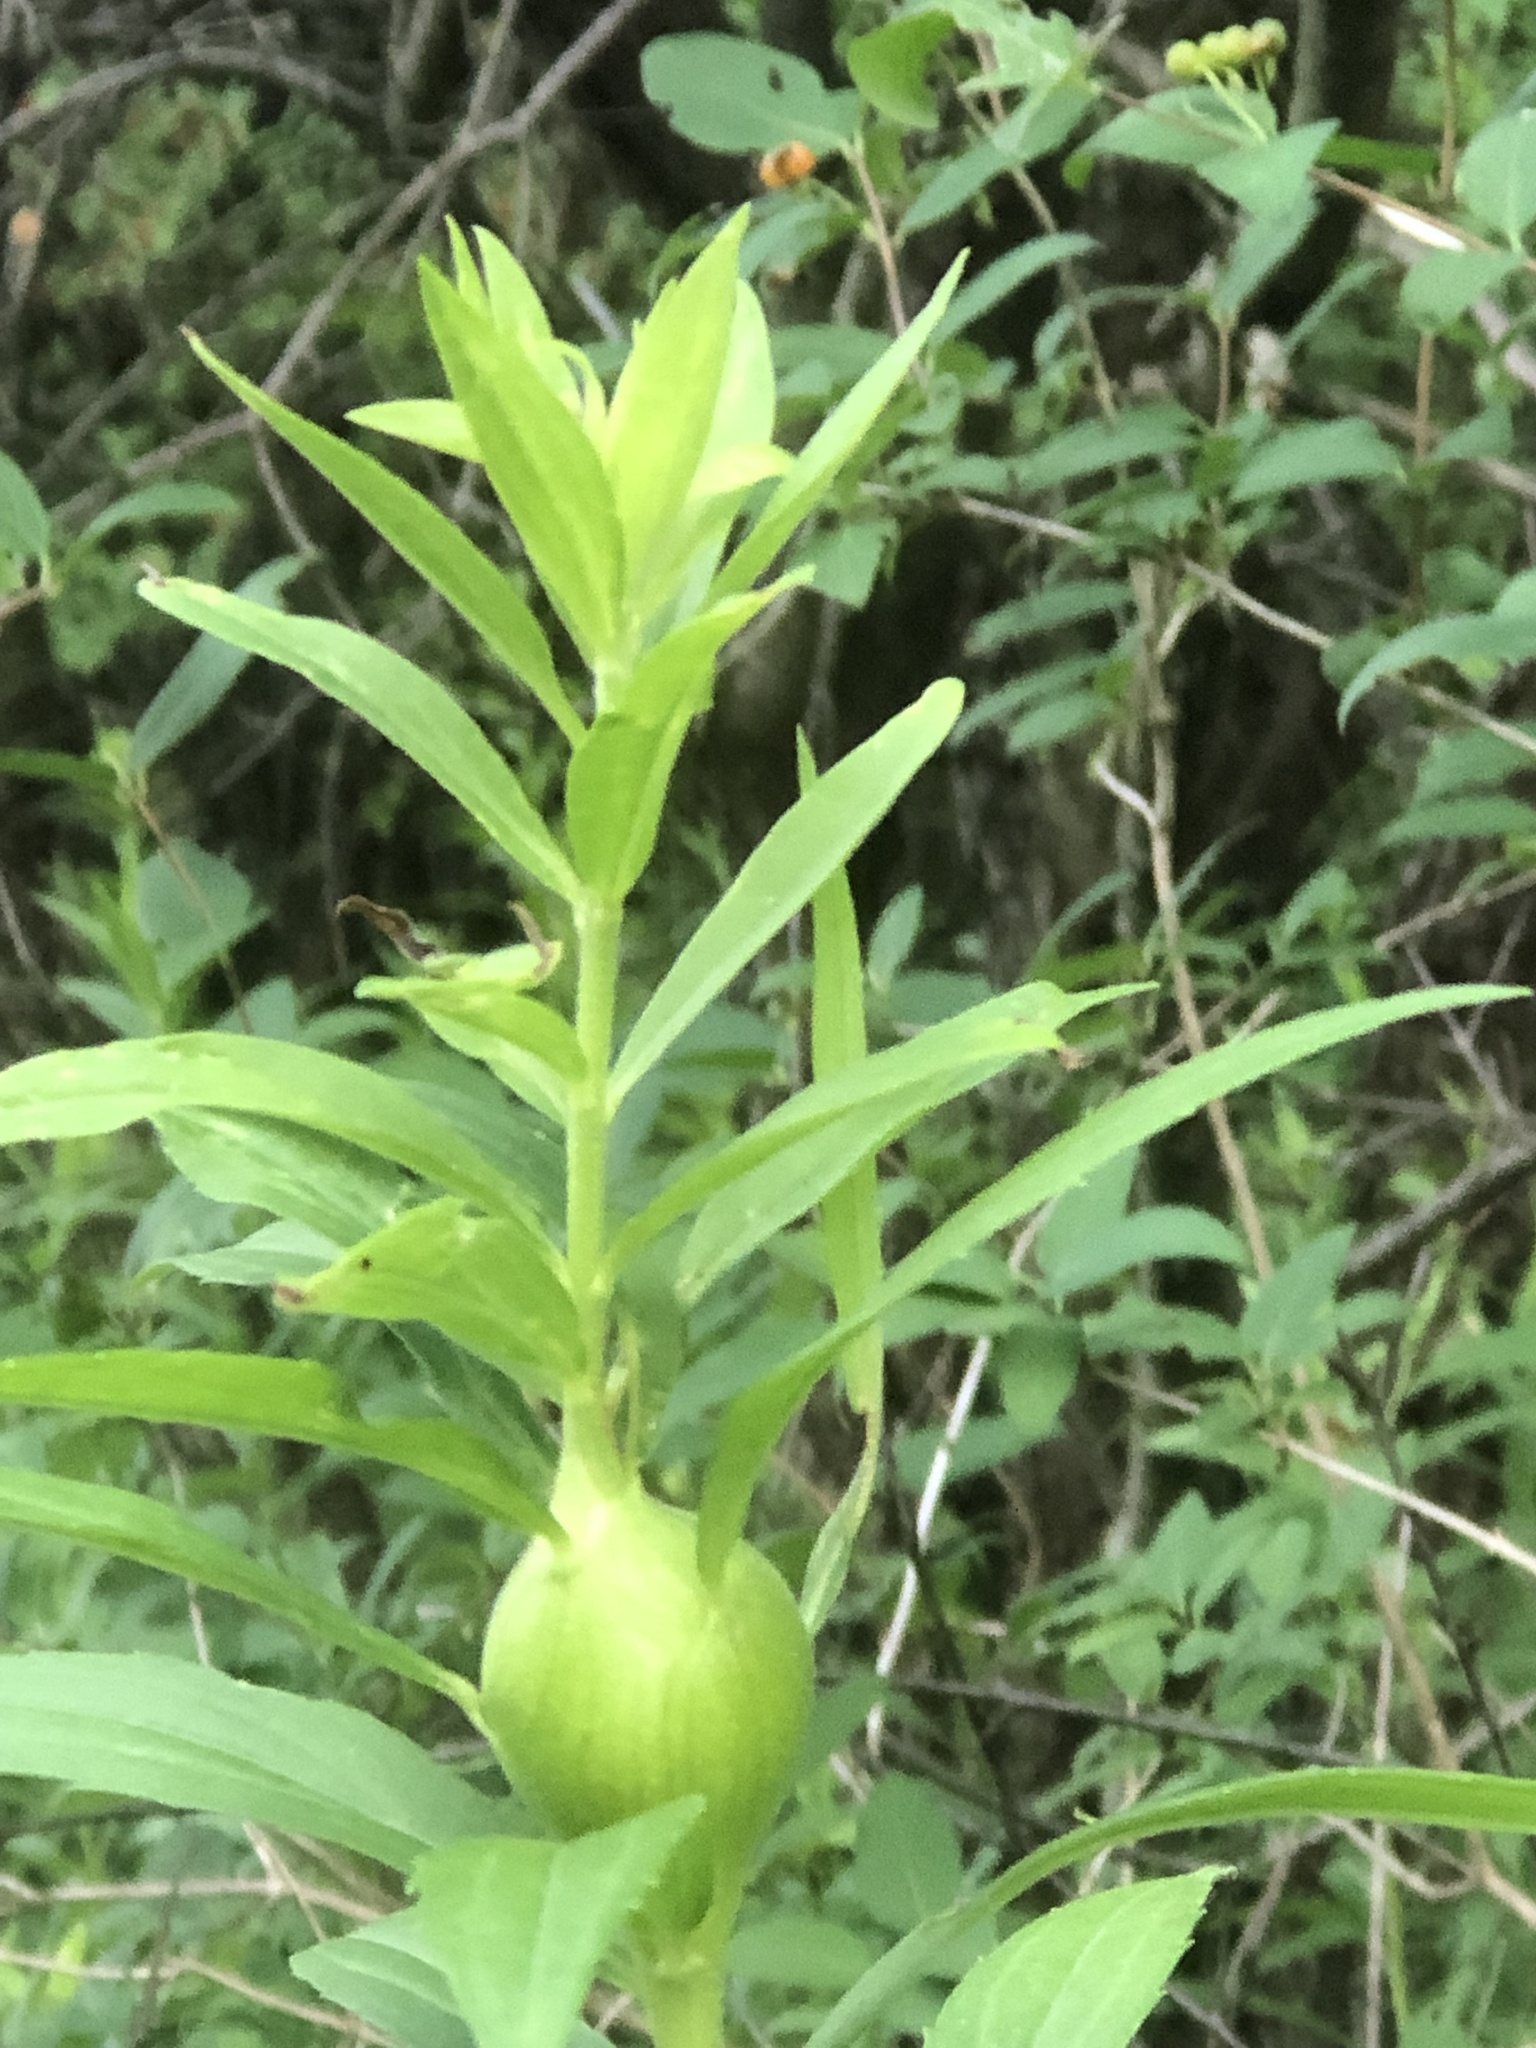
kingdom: Animalia
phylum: Arthropoda
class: Insecta
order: Diptera
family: Tephritidae
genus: Eurosta
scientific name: Eurosta solidaginis
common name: Goldenrod gall fly
